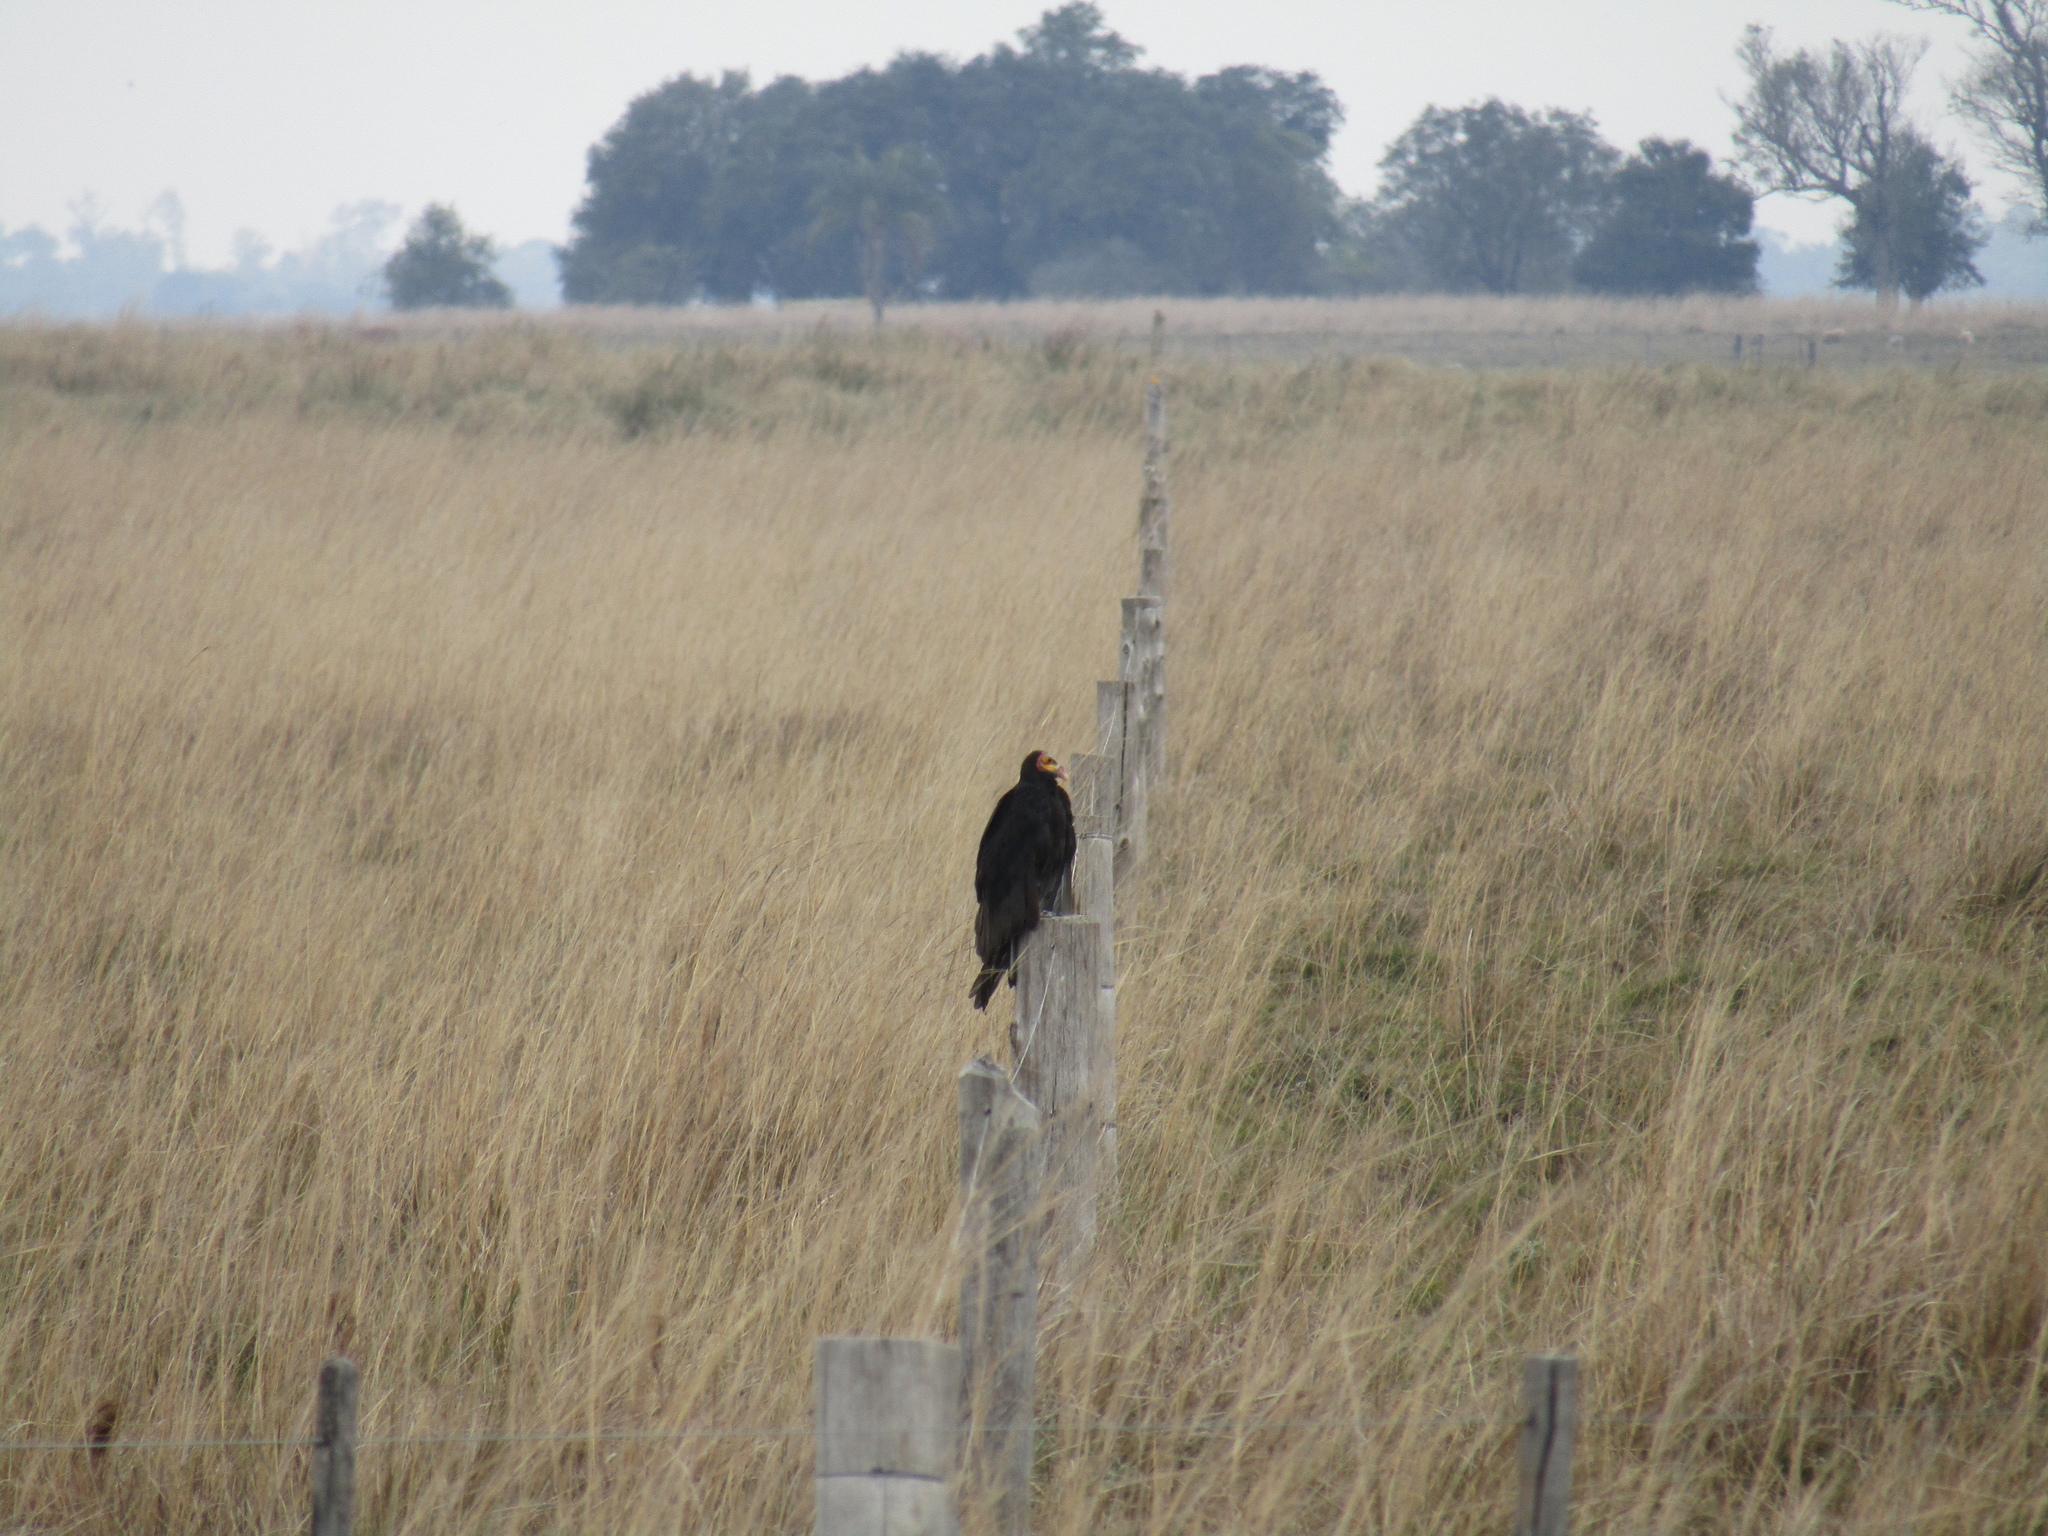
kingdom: Animalia
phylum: Chordata
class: Aves
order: Accipitriformes
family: Cathartidae
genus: Cathartes
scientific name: Cathartes burrovianus
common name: Lesser yellow-headed vulture
